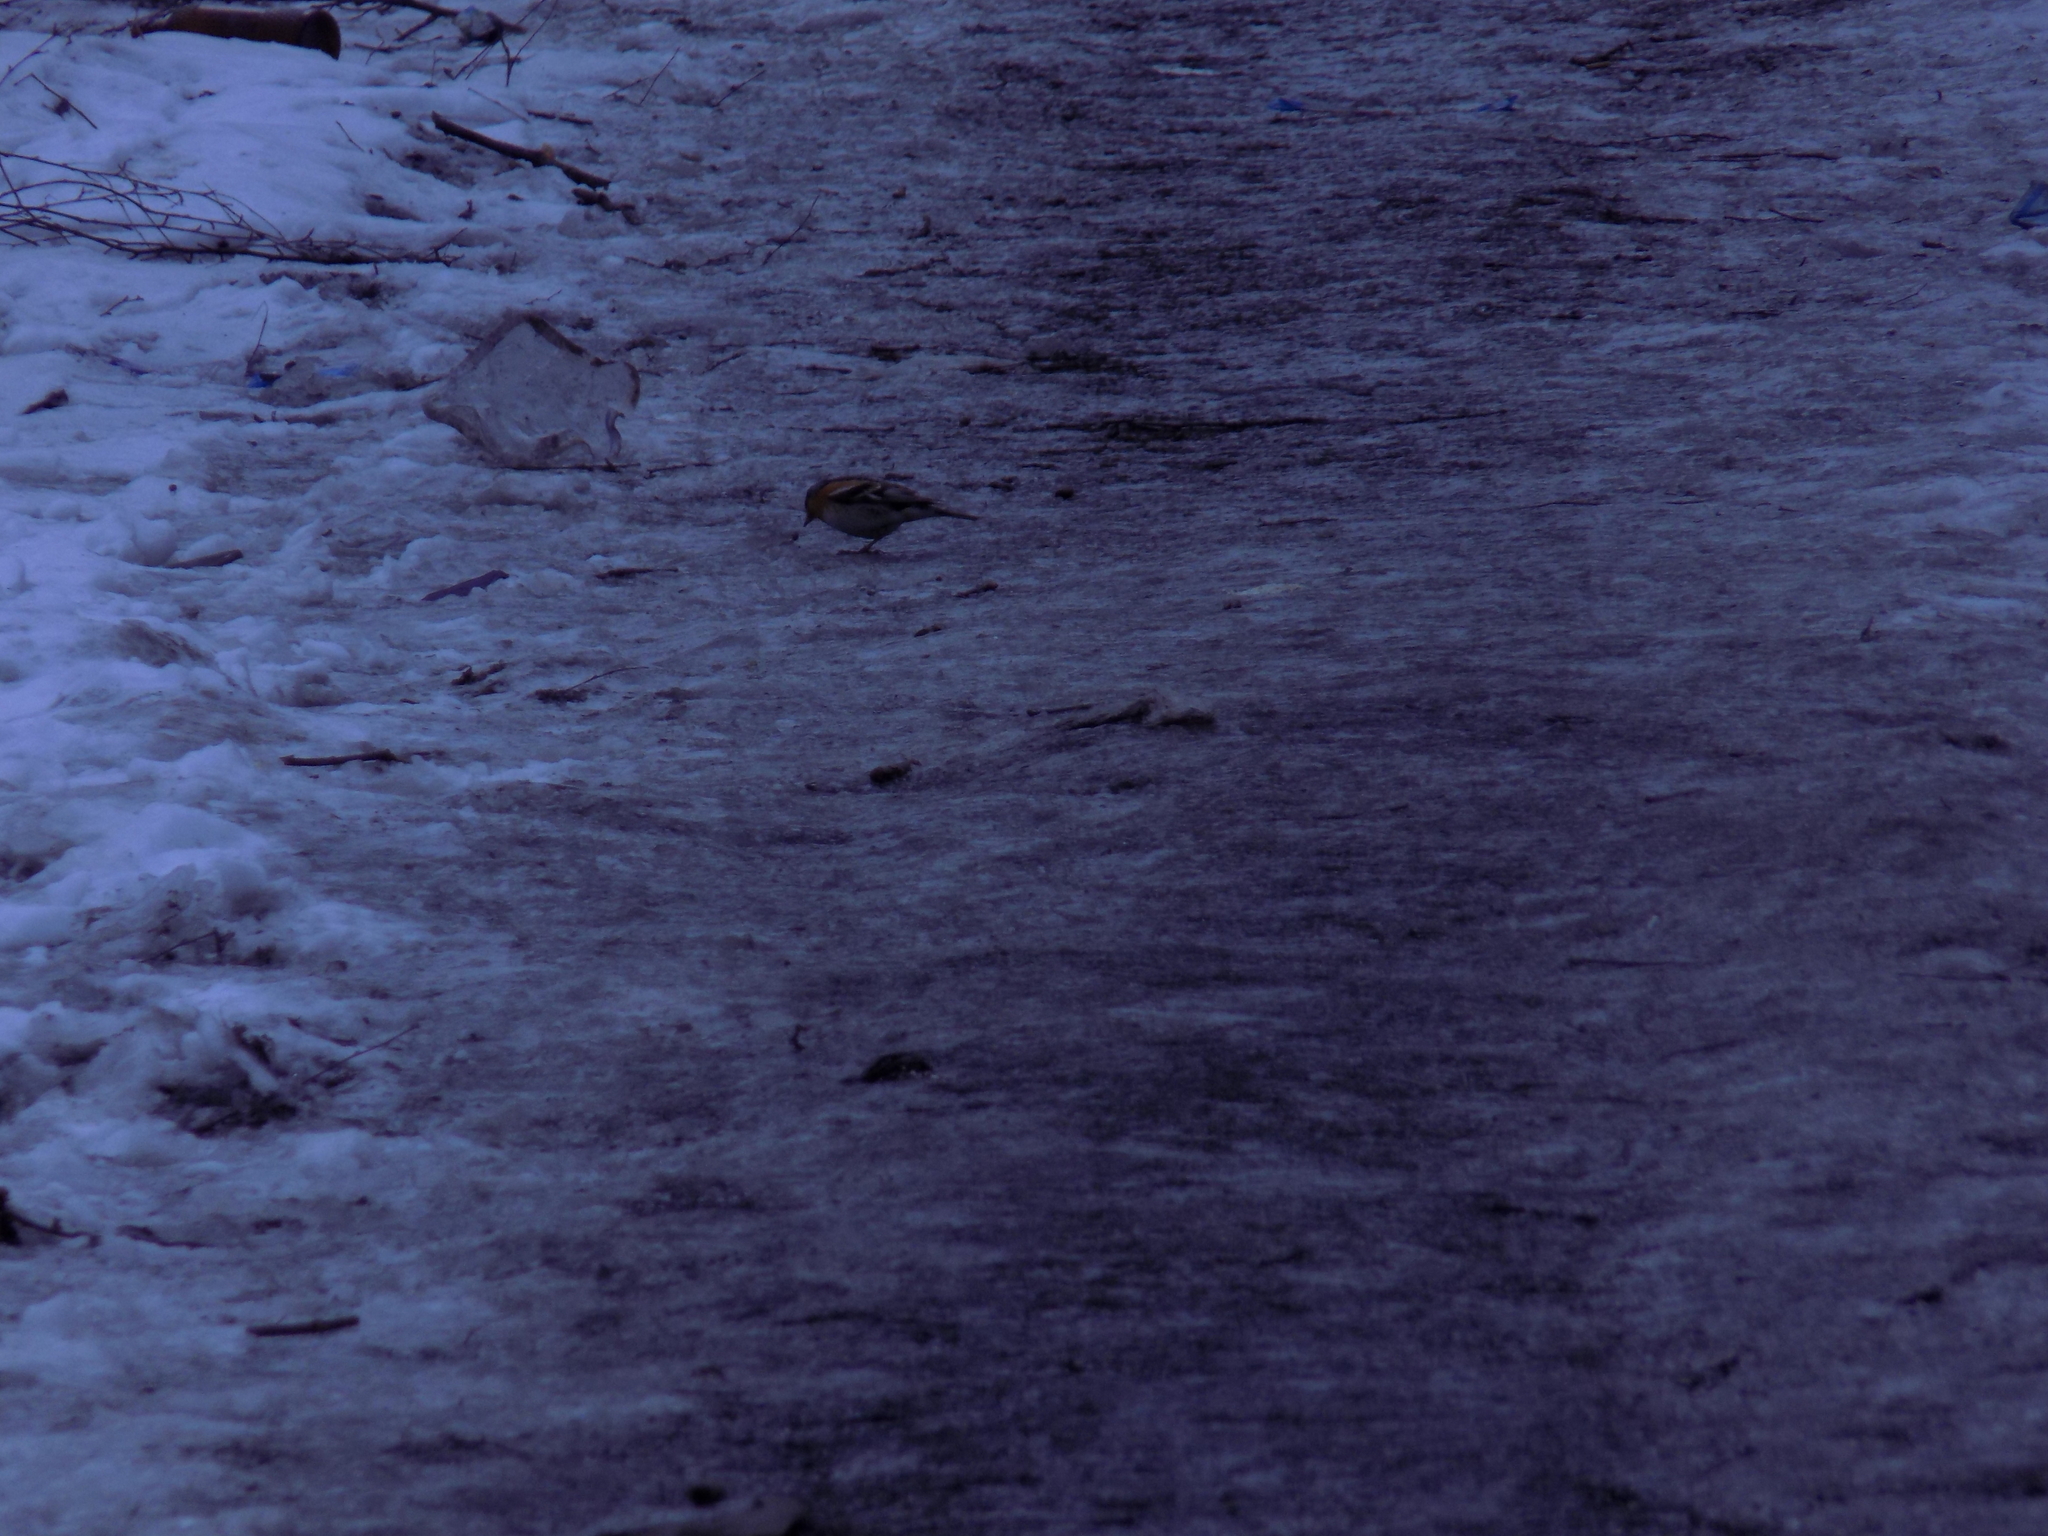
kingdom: Animalia
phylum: Chordata
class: Aves
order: Passeriformes
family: Fringillidae
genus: Fringilla
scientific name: Fringilla montifringilla
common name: Brambling
